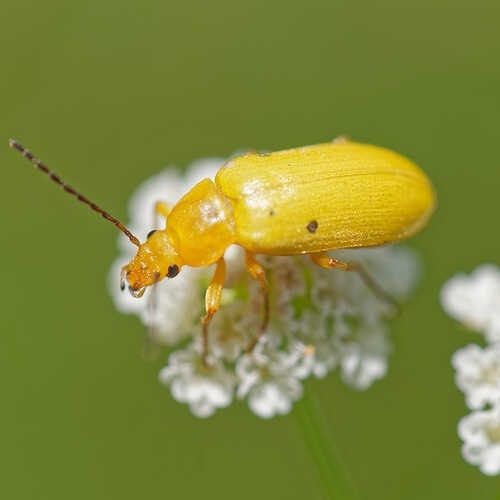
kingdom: Animalia
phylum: Arthropoda
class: Insecta
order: Coleoptera
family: Tenebrionidae
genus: Cteniopus
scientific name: Cteniopus sulphureus
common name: Sulphur beetle
